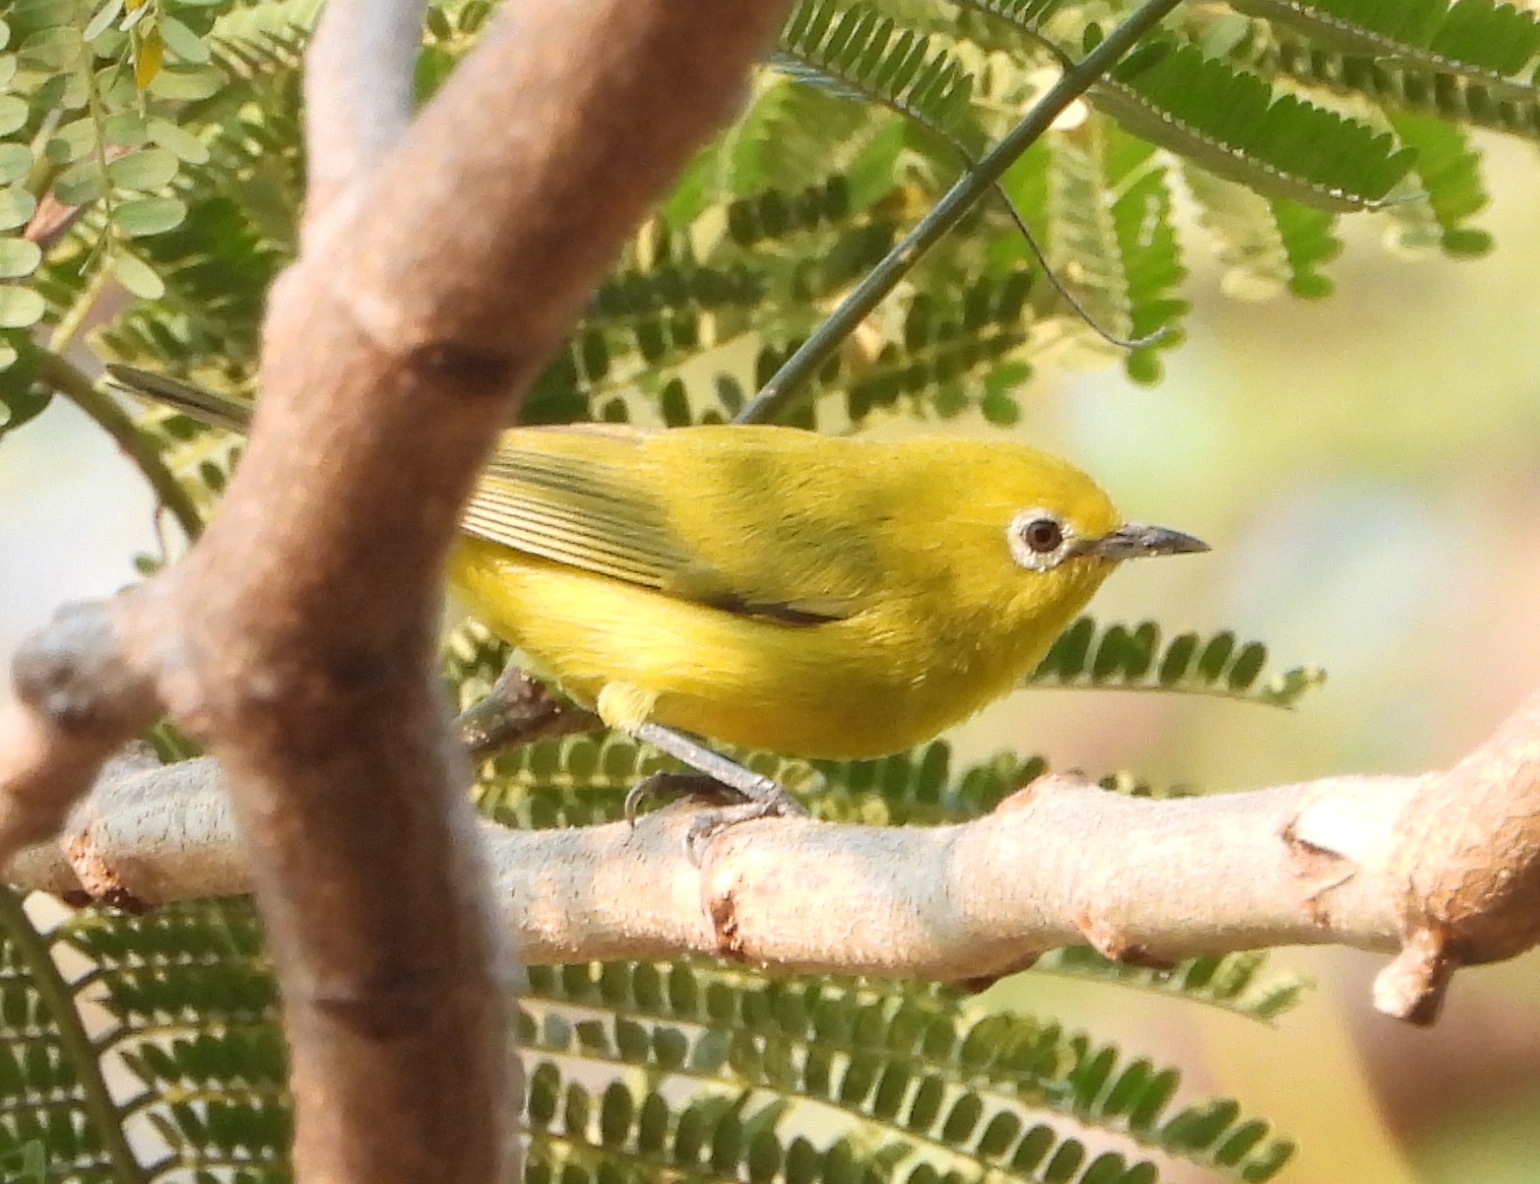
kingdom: Animalia
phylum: Chordata
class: Aves
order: Passeriformes
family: Zosteropidae
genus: Zosterops
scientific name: Zosterops anderssoni
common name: Southern yellow white-eye
